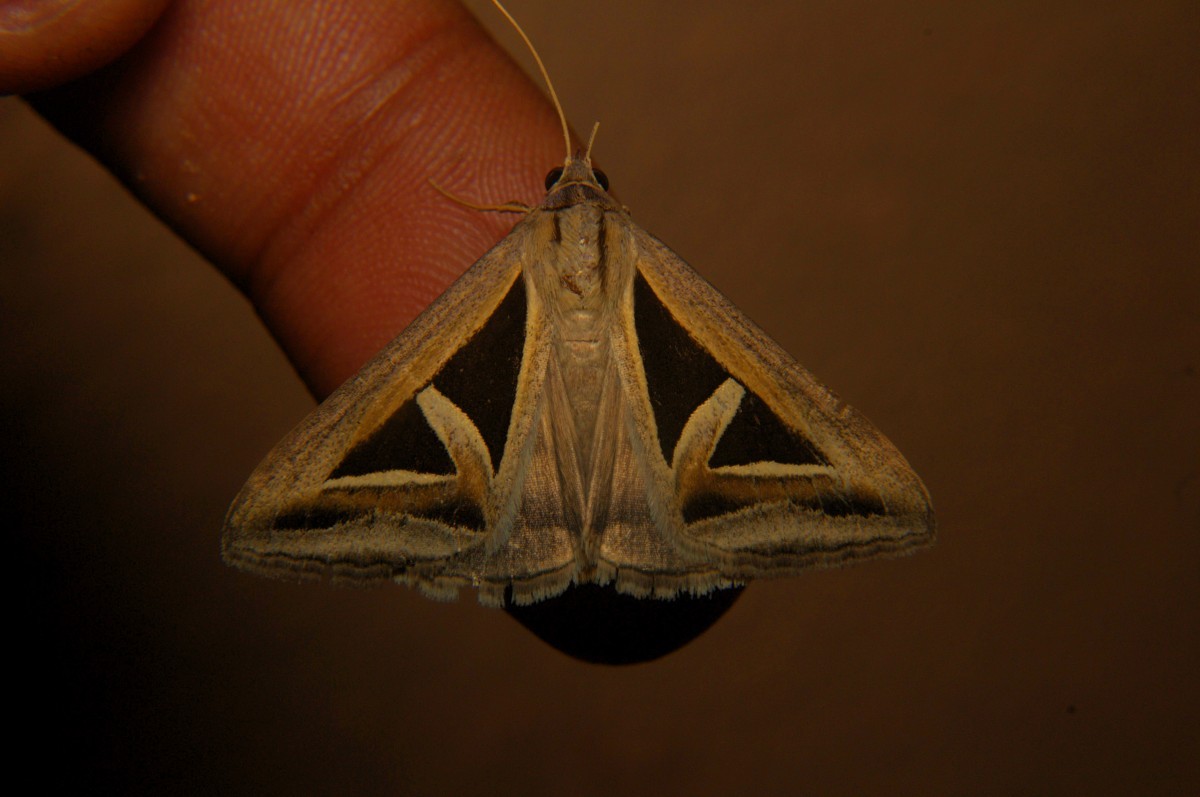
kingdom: Animalia
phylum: Arthropoda
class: Insecta
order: Lepidoptera
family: Erebidae
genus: Trigonodes
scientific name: Trigonodes hyppasia
